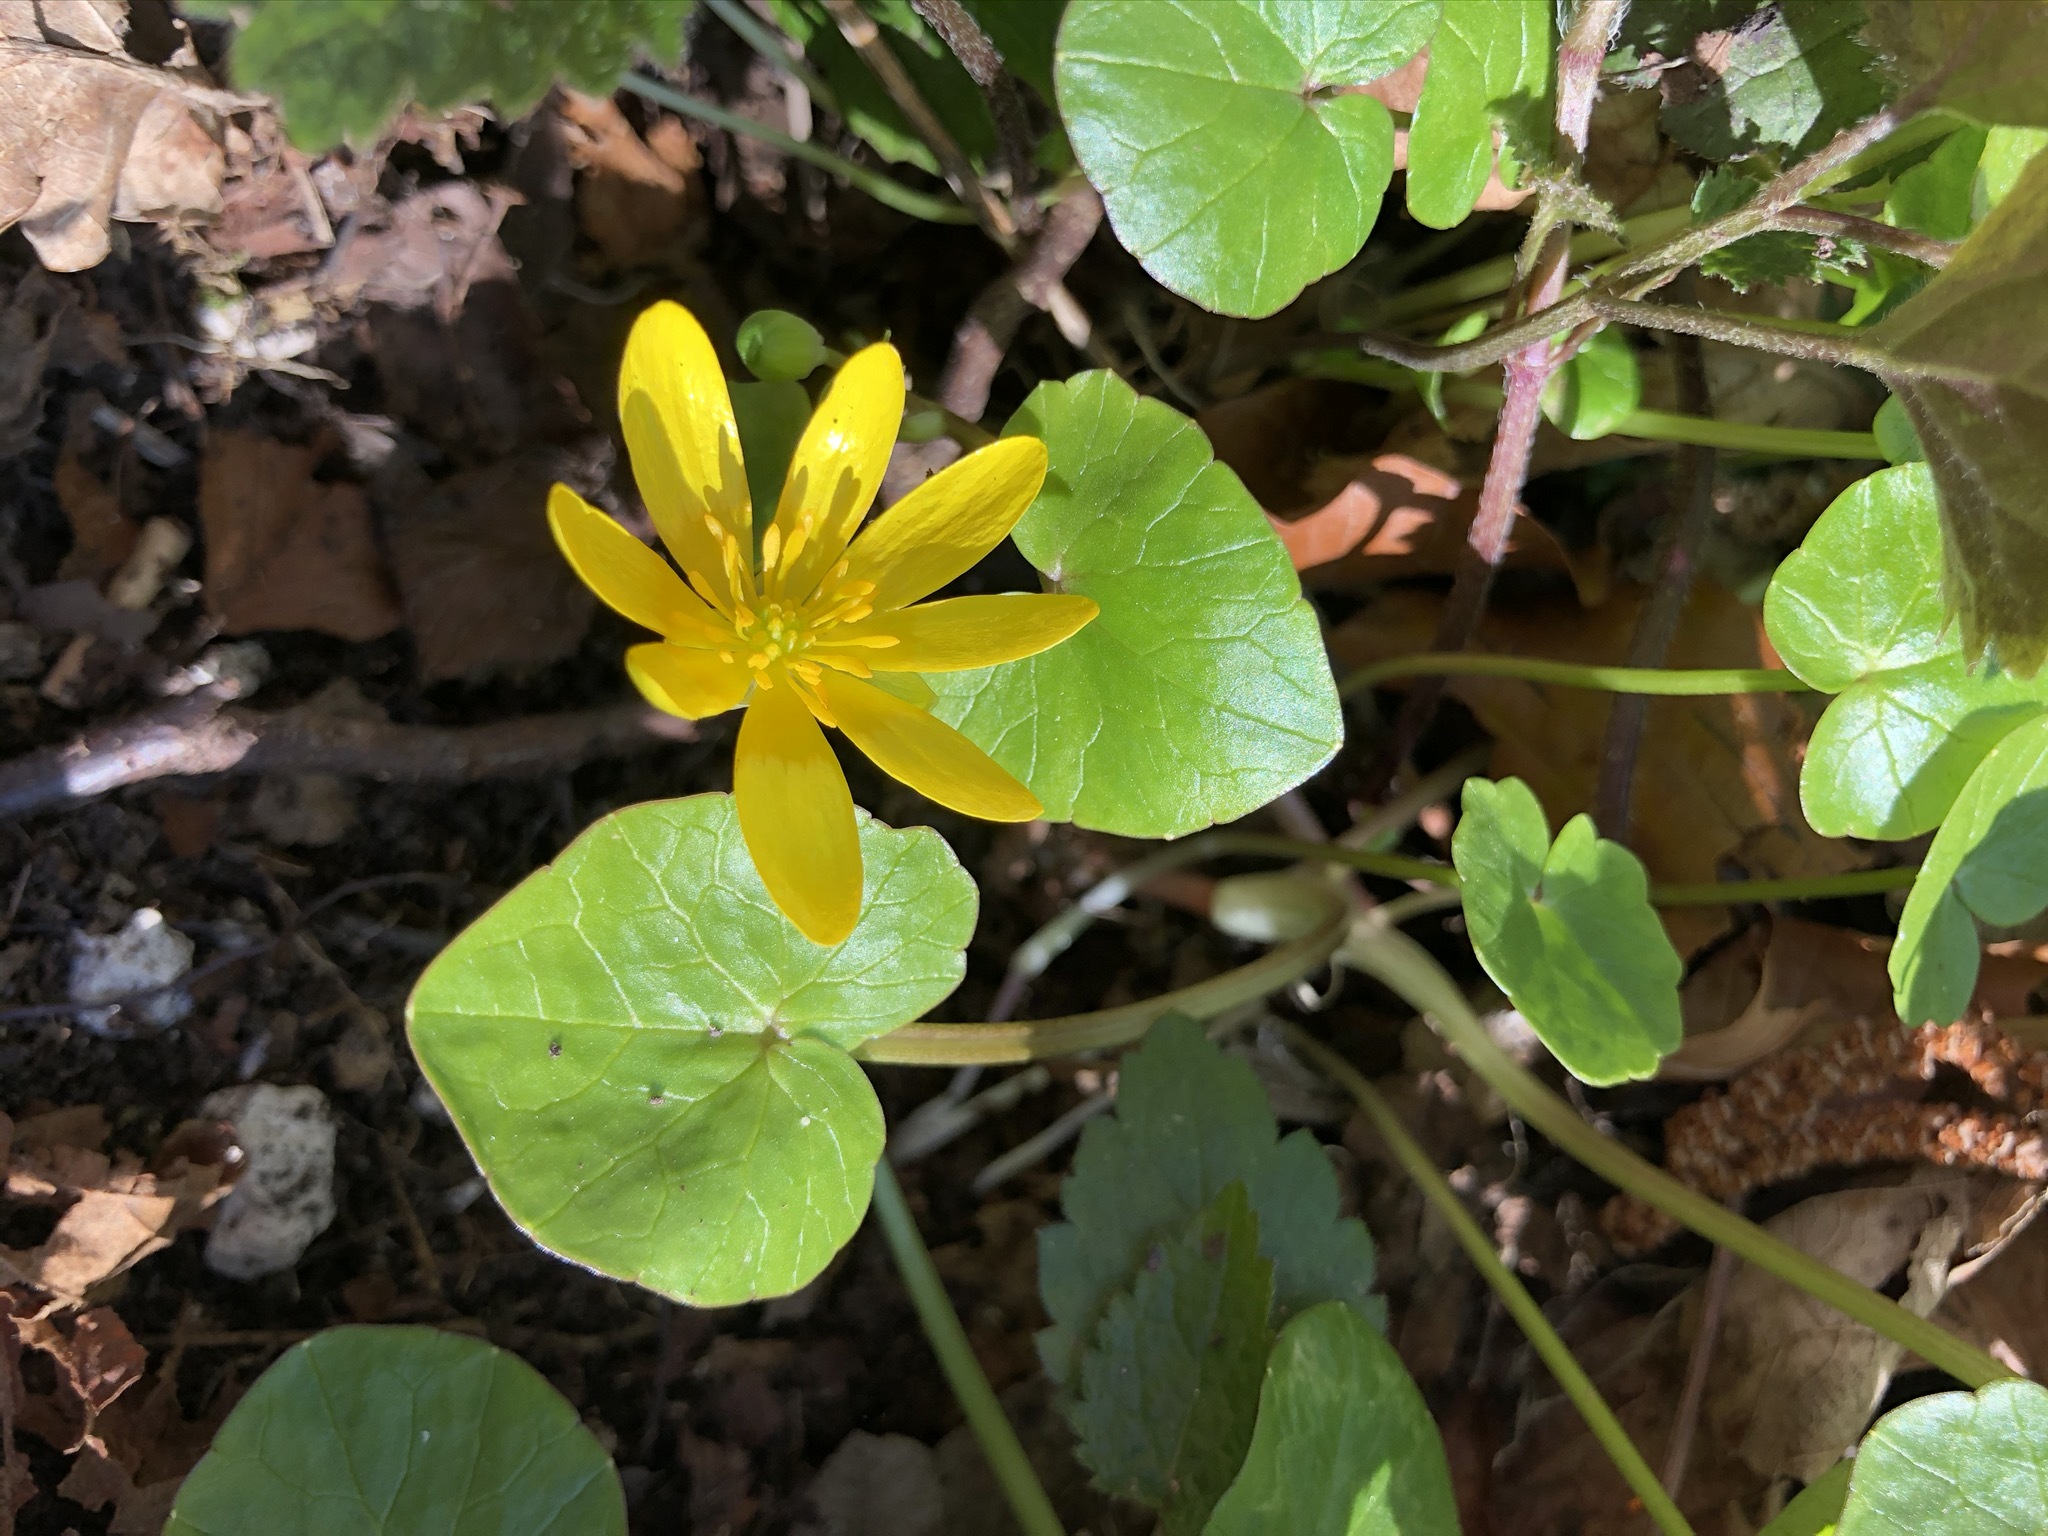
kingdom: Plantae
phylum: Tracheophyta
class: Magnoliopsida
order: Ranunculales
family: Ranunculaceae
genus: Ficaria
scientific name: Ficaria verna
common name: Lesser celandine
